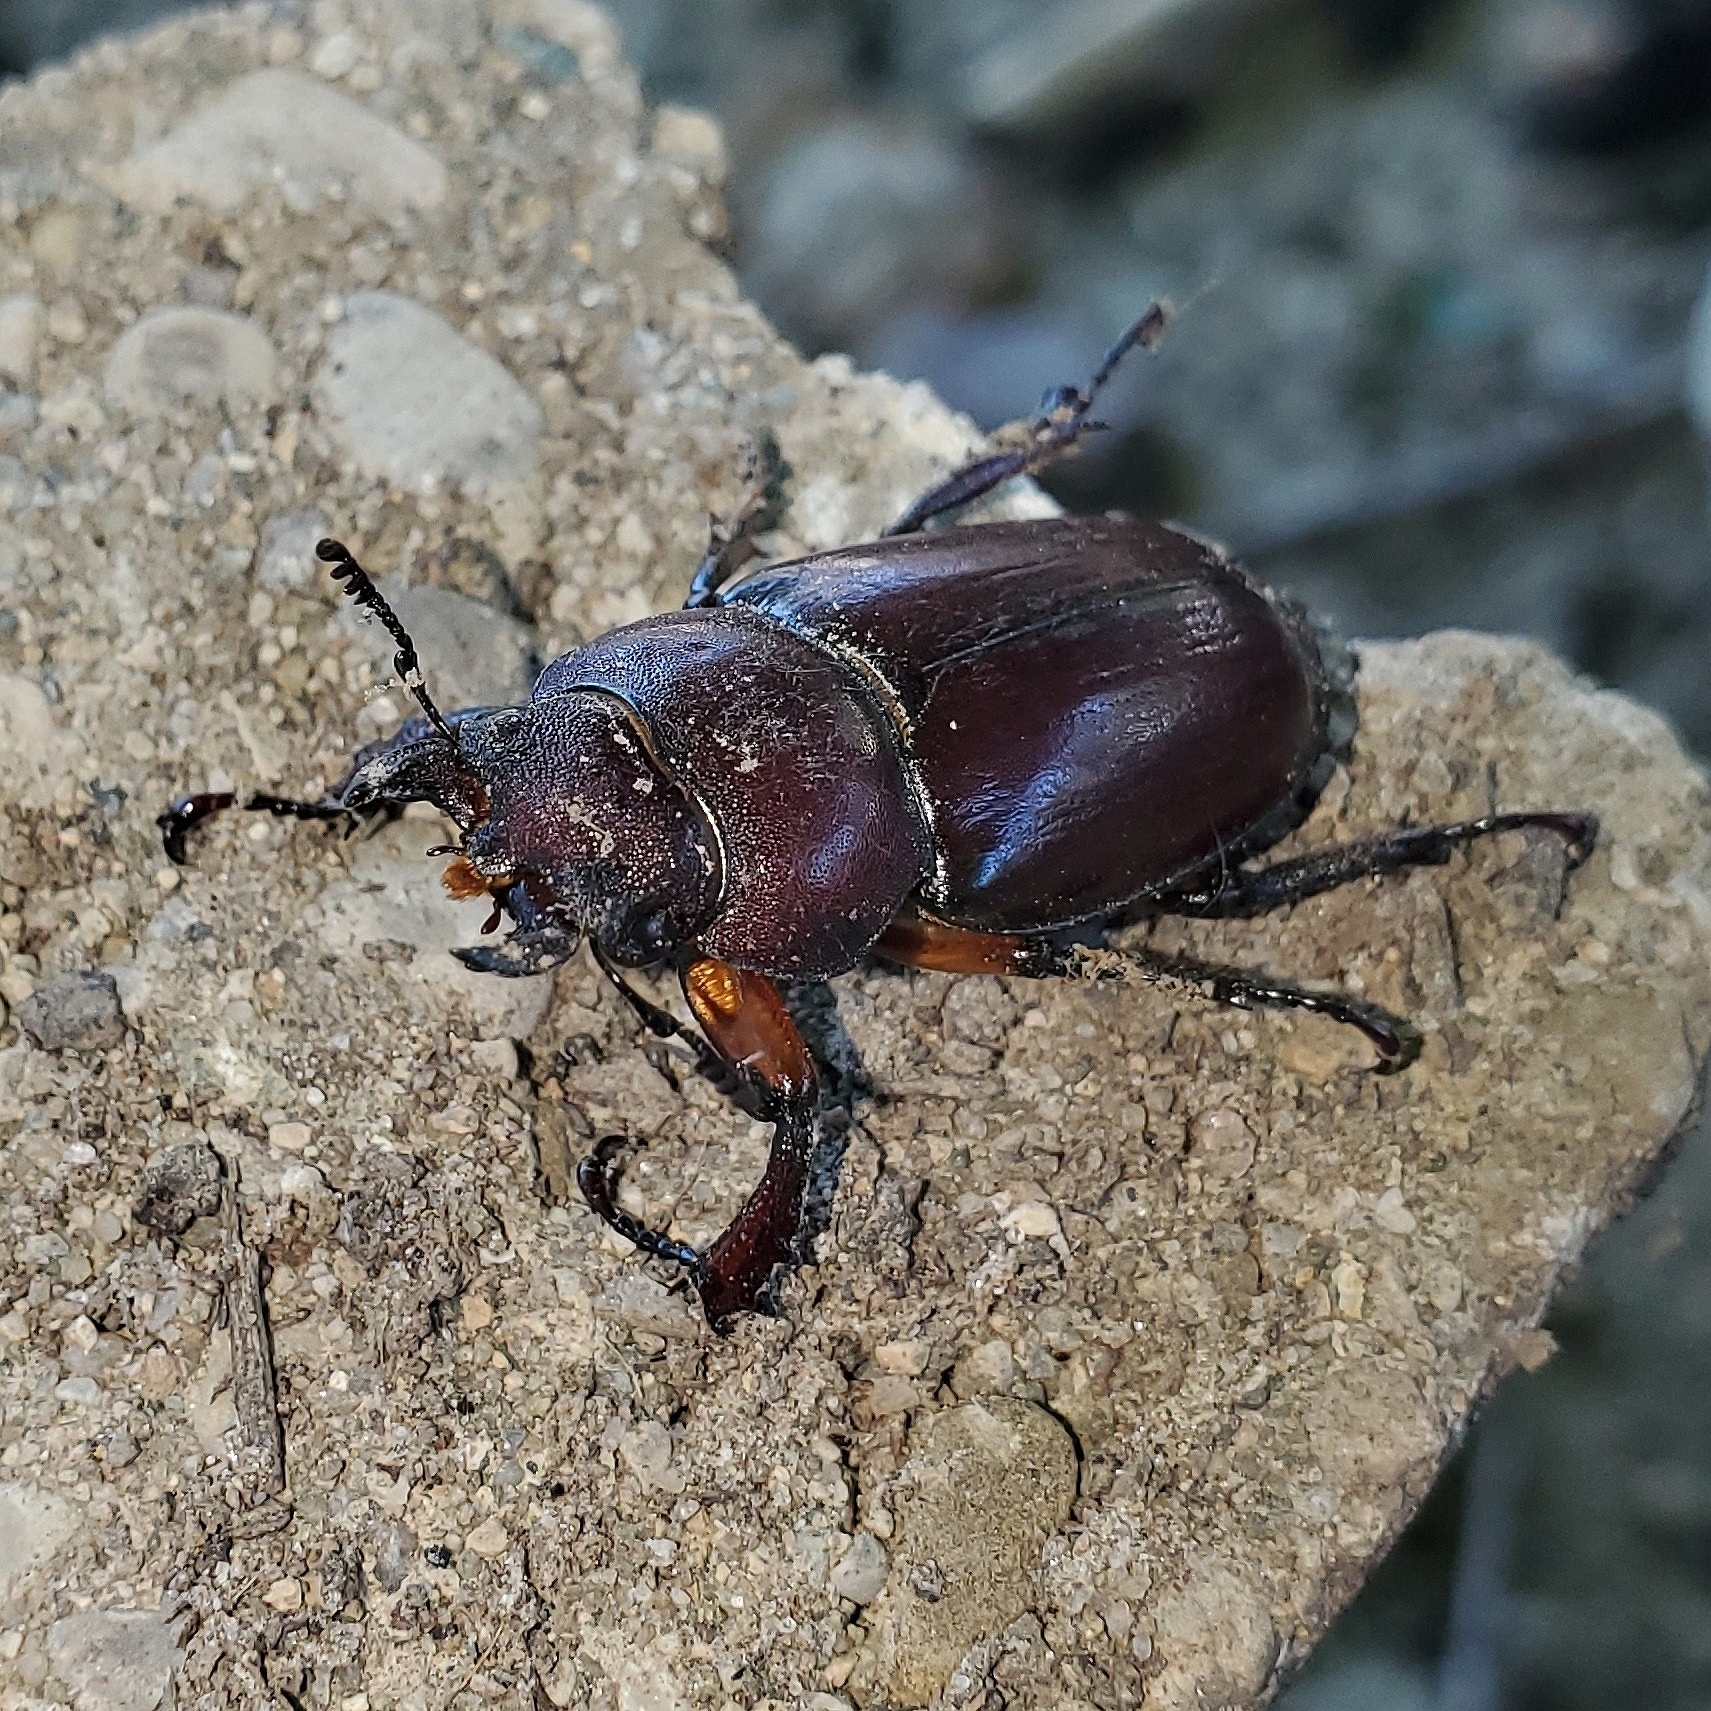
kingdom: Animalia
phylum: Arthropoda
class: Insecta
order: Coleoptera
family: Lucanidae
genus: Lucanus
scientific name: Lucanus capreolus
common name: Stag beetle
